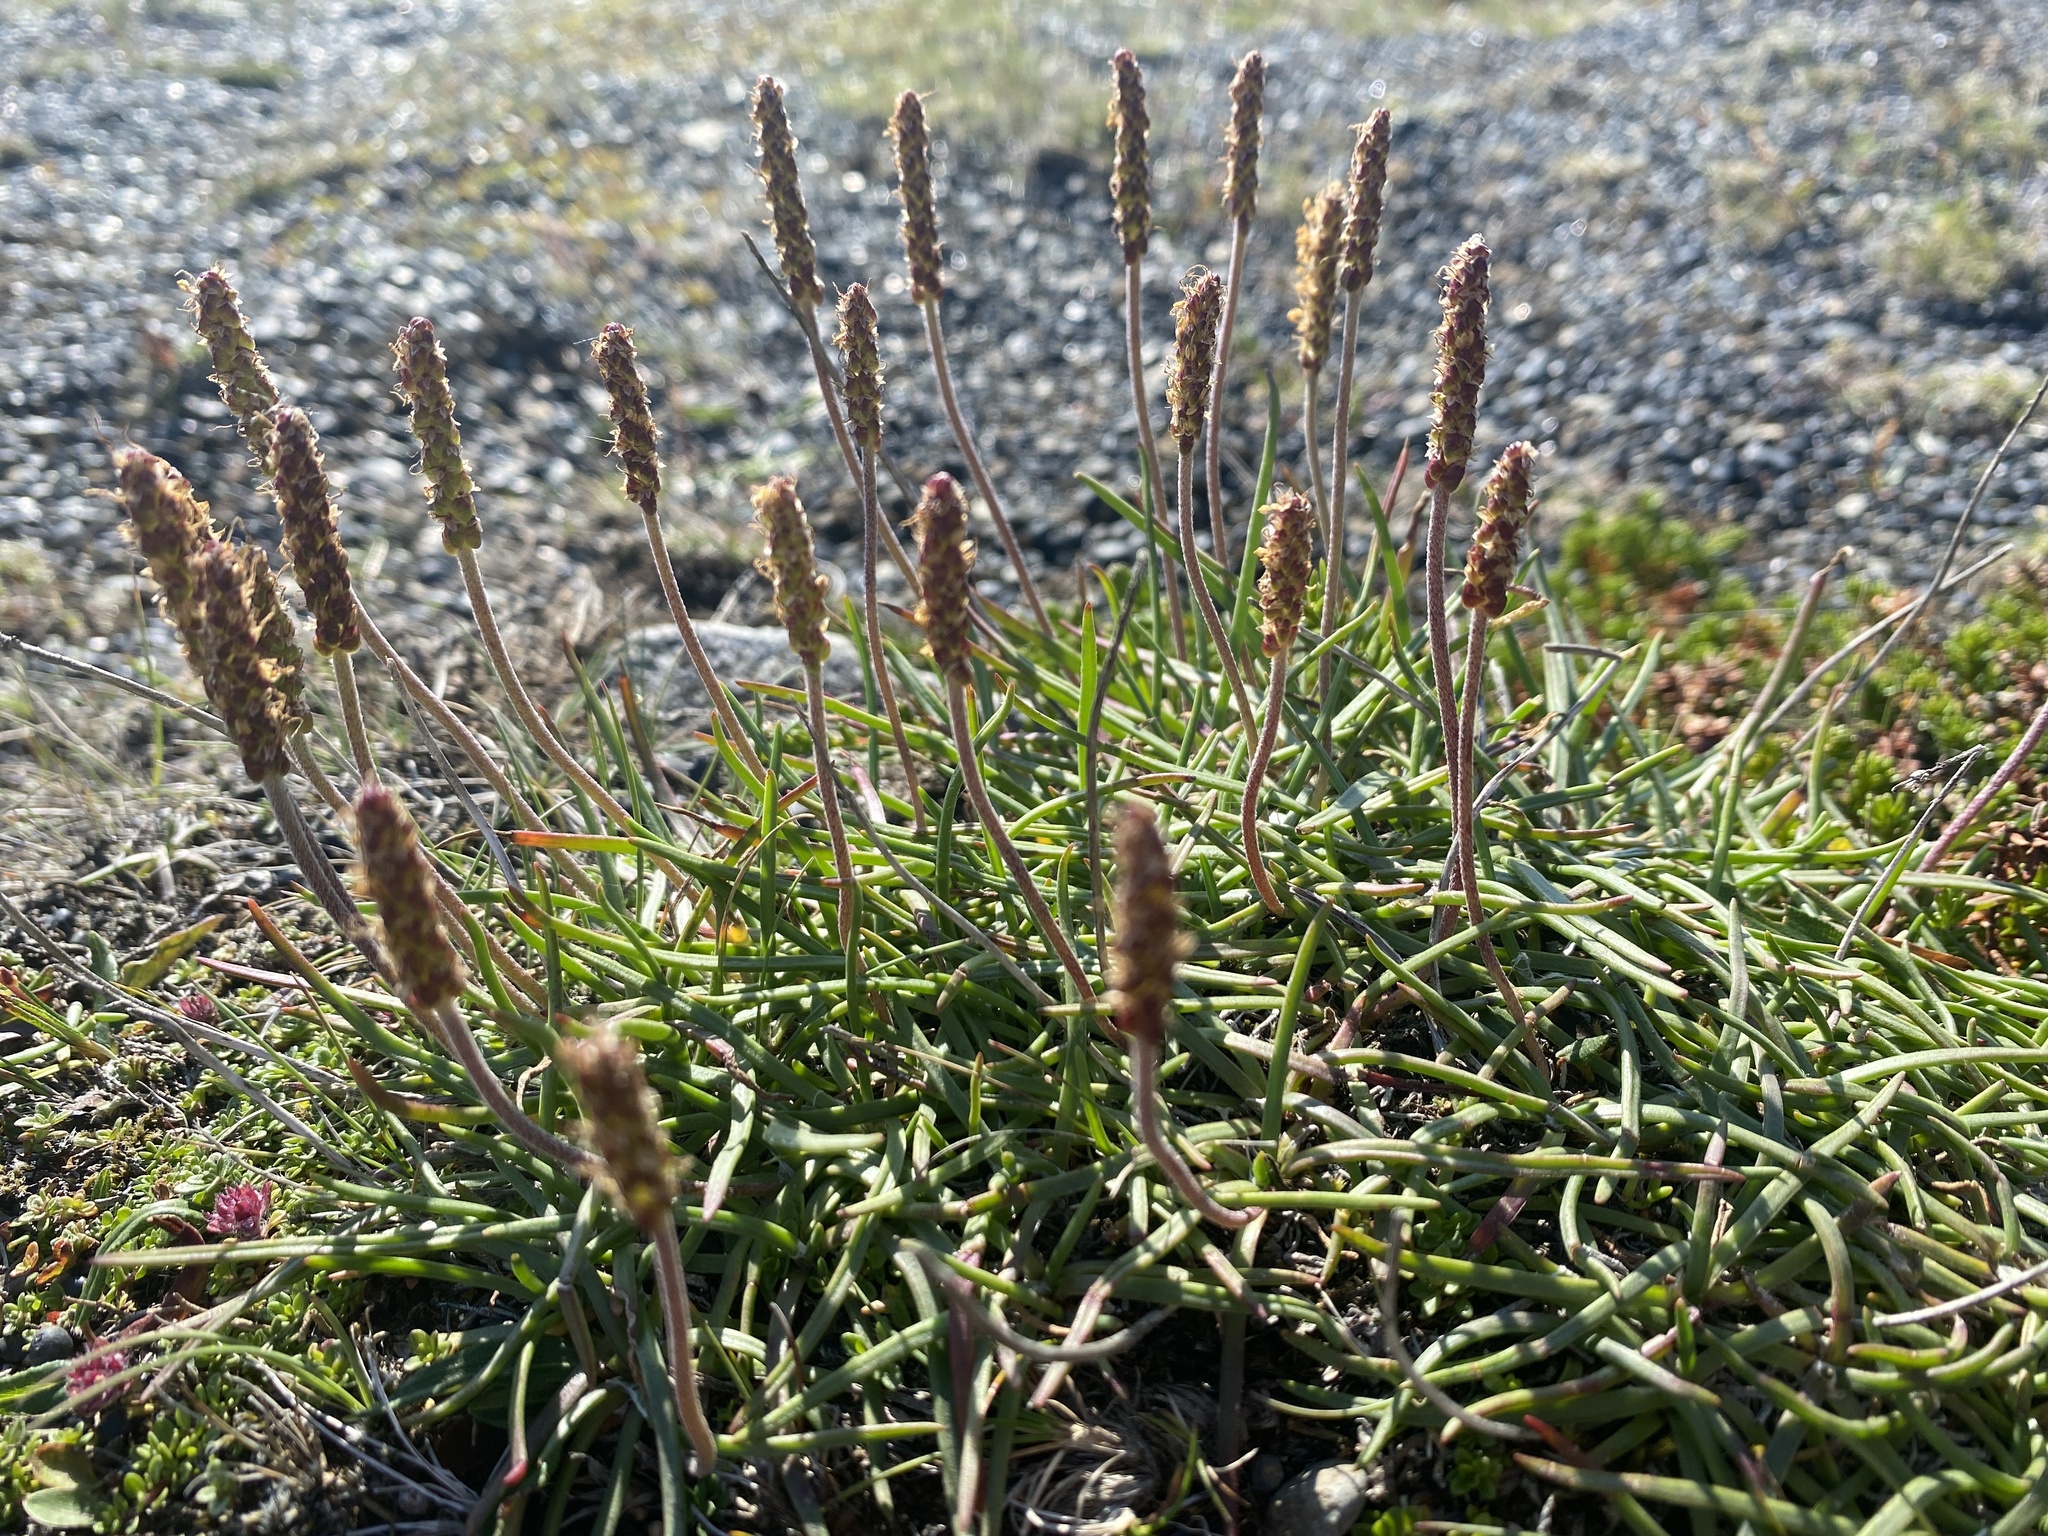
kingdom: Plantae
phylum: Tracheophyta
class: Magnoliopsida
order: Lamiales
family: Plantaginaceae
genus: Plantago
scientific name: Plantago maritima
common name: Sea plantain
